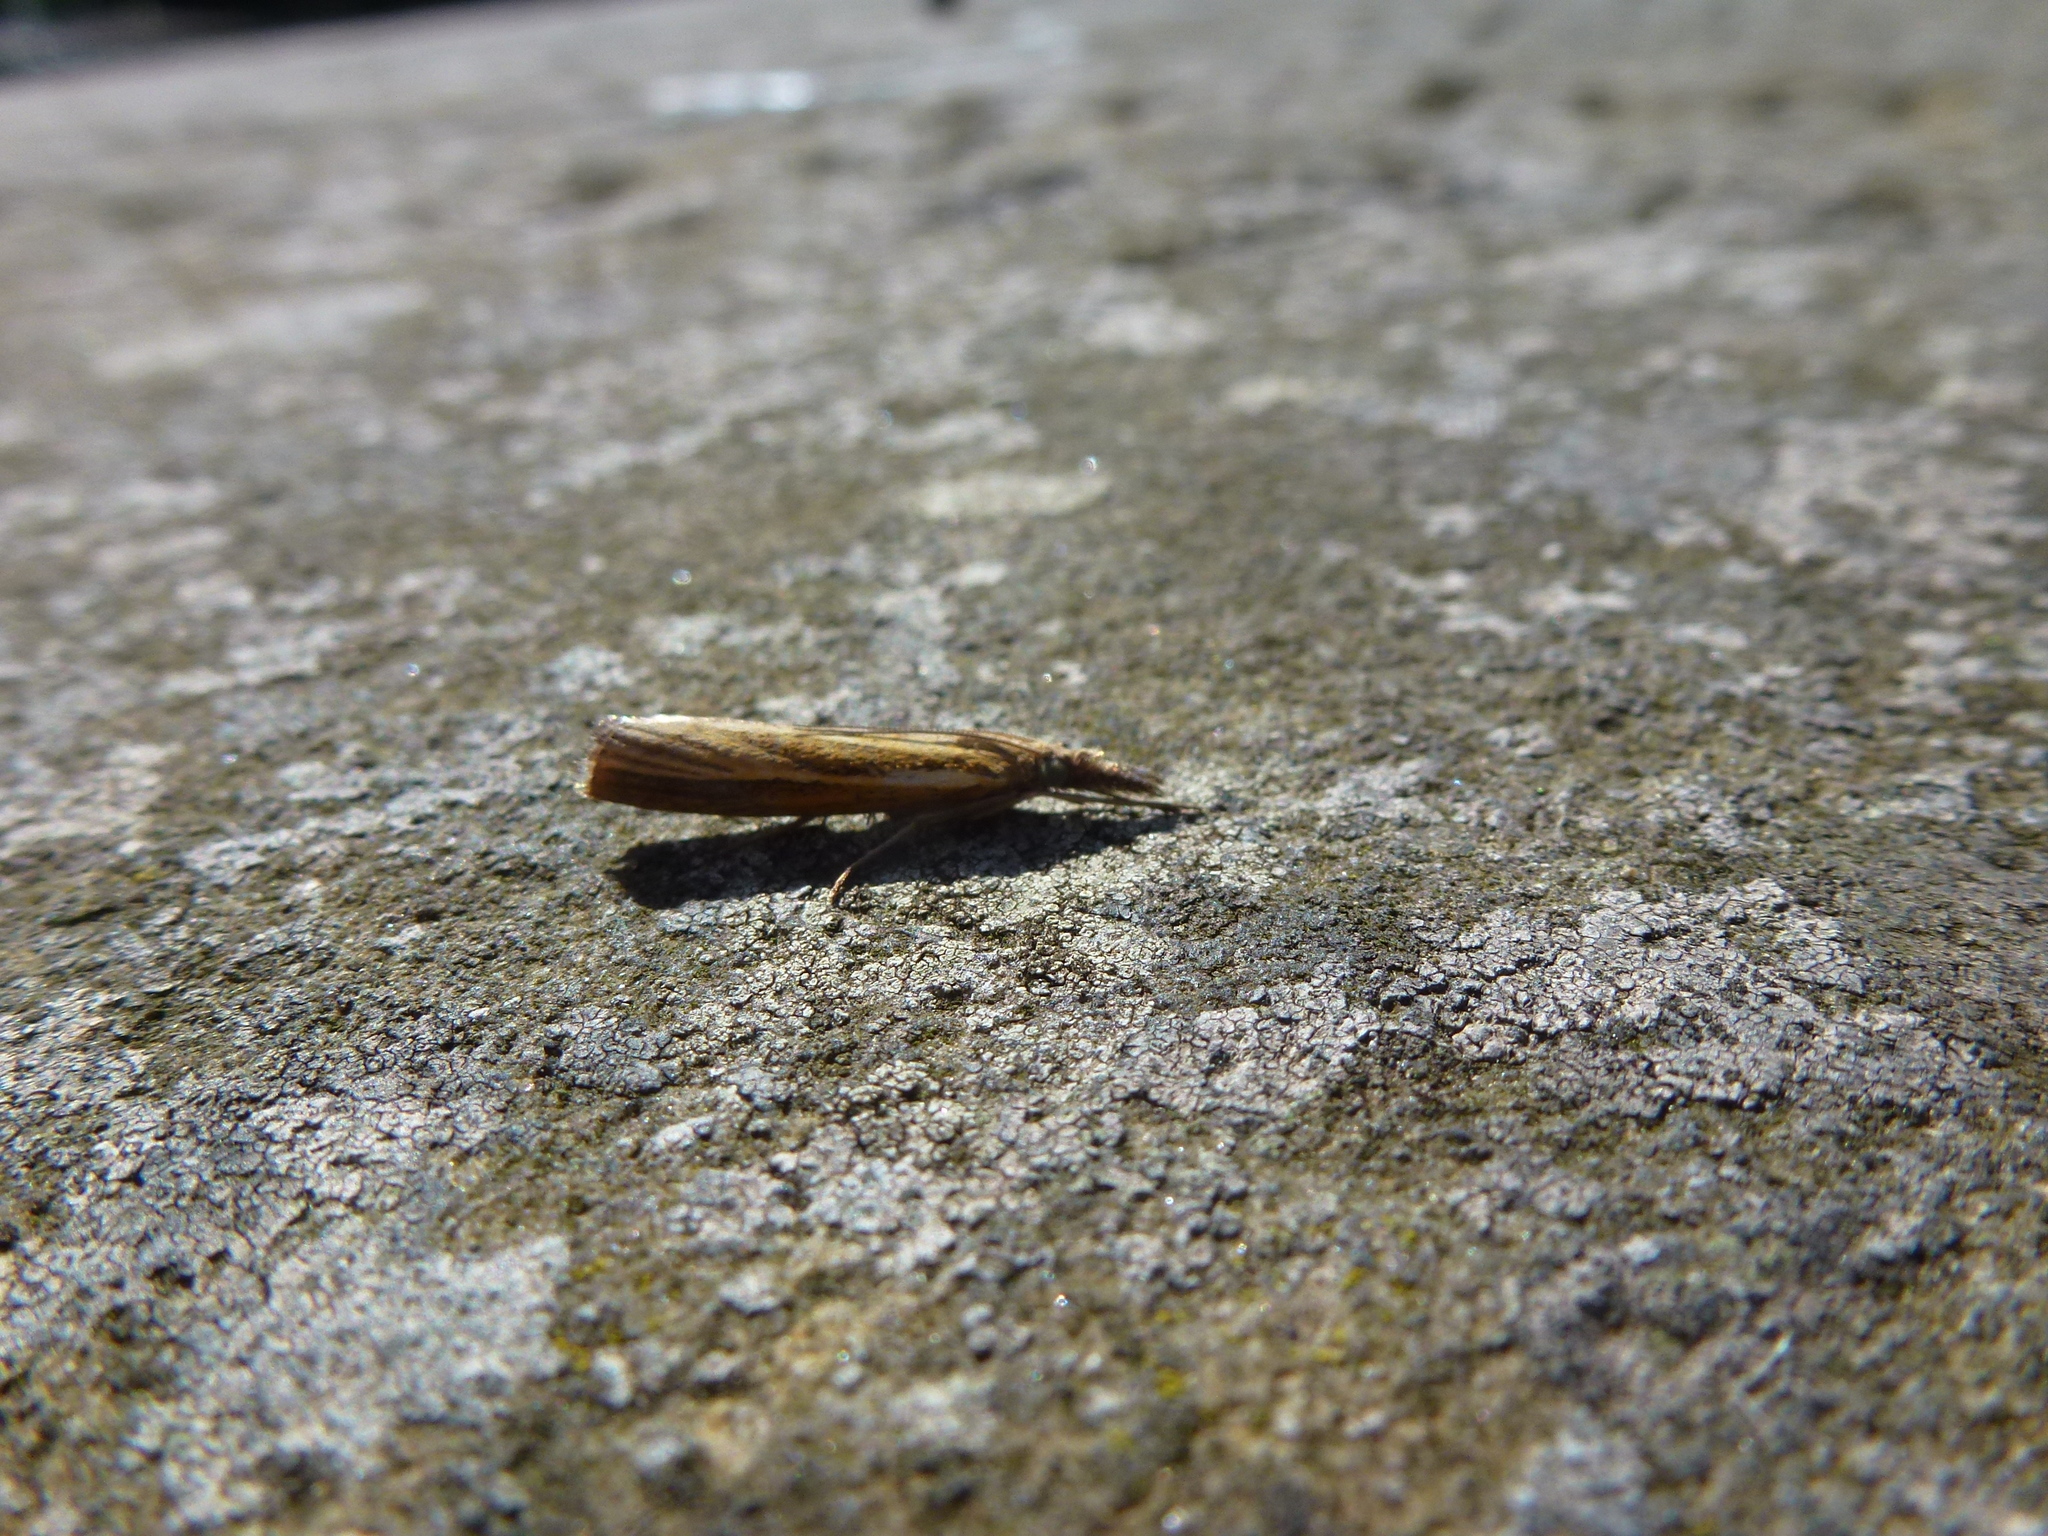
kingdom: Animalia
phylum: Arthropoda
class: Insecta
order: Lepidoptera
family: Crambidae
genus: Agriphila
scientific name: Agriphila tristellus
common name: Common grass-veneer
